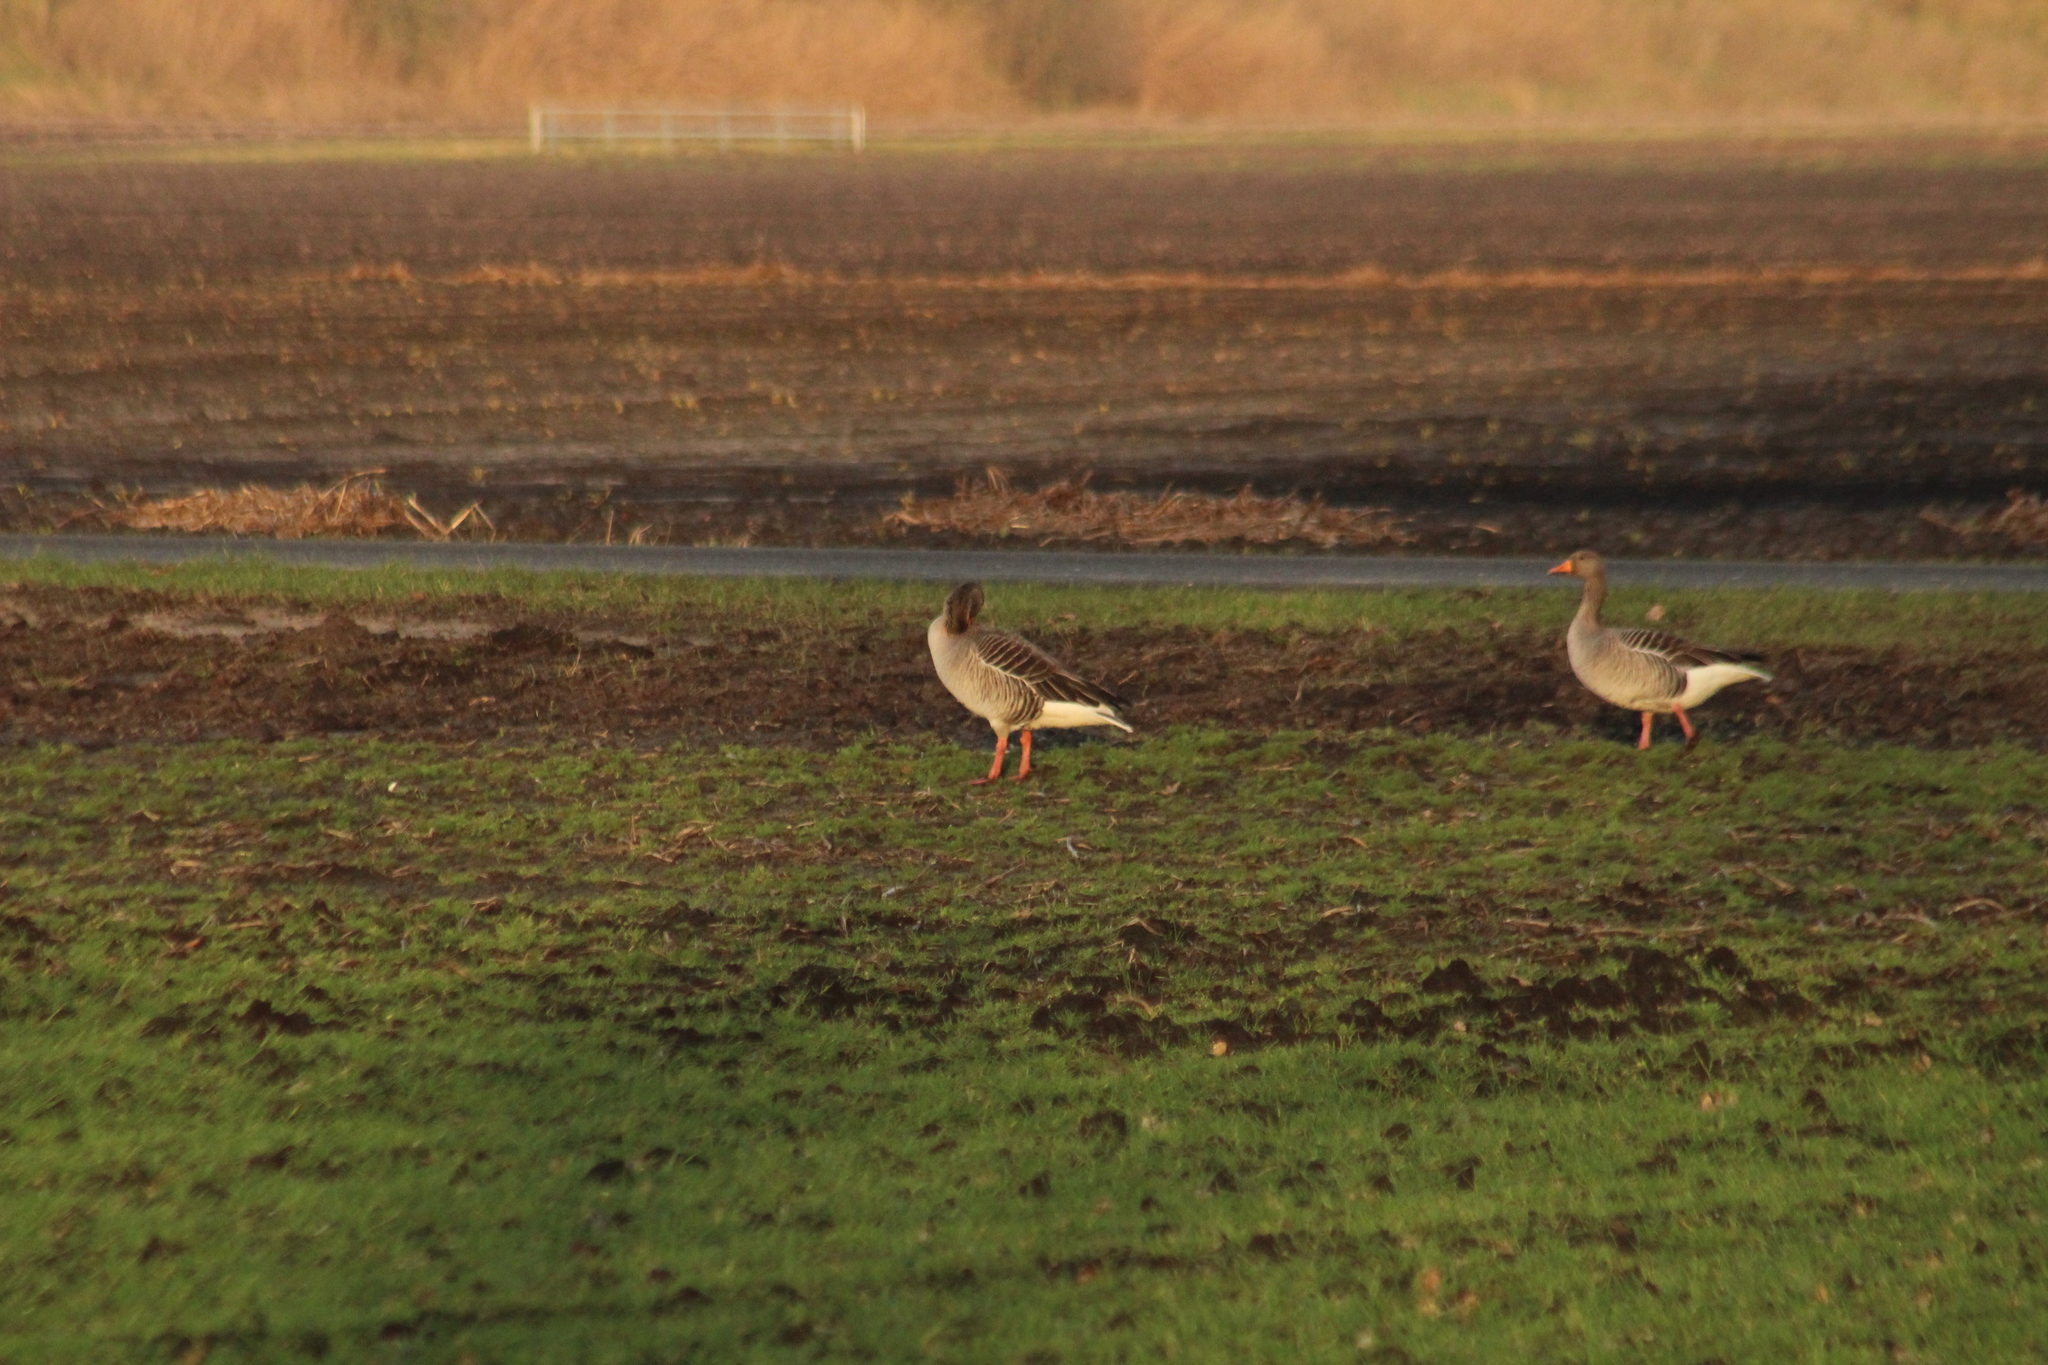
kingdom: Animalia
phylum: Chordata
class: Aves
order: Anseriformes
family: Anatidae
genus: Anser
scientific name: Anser anser
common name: Greylag goose
